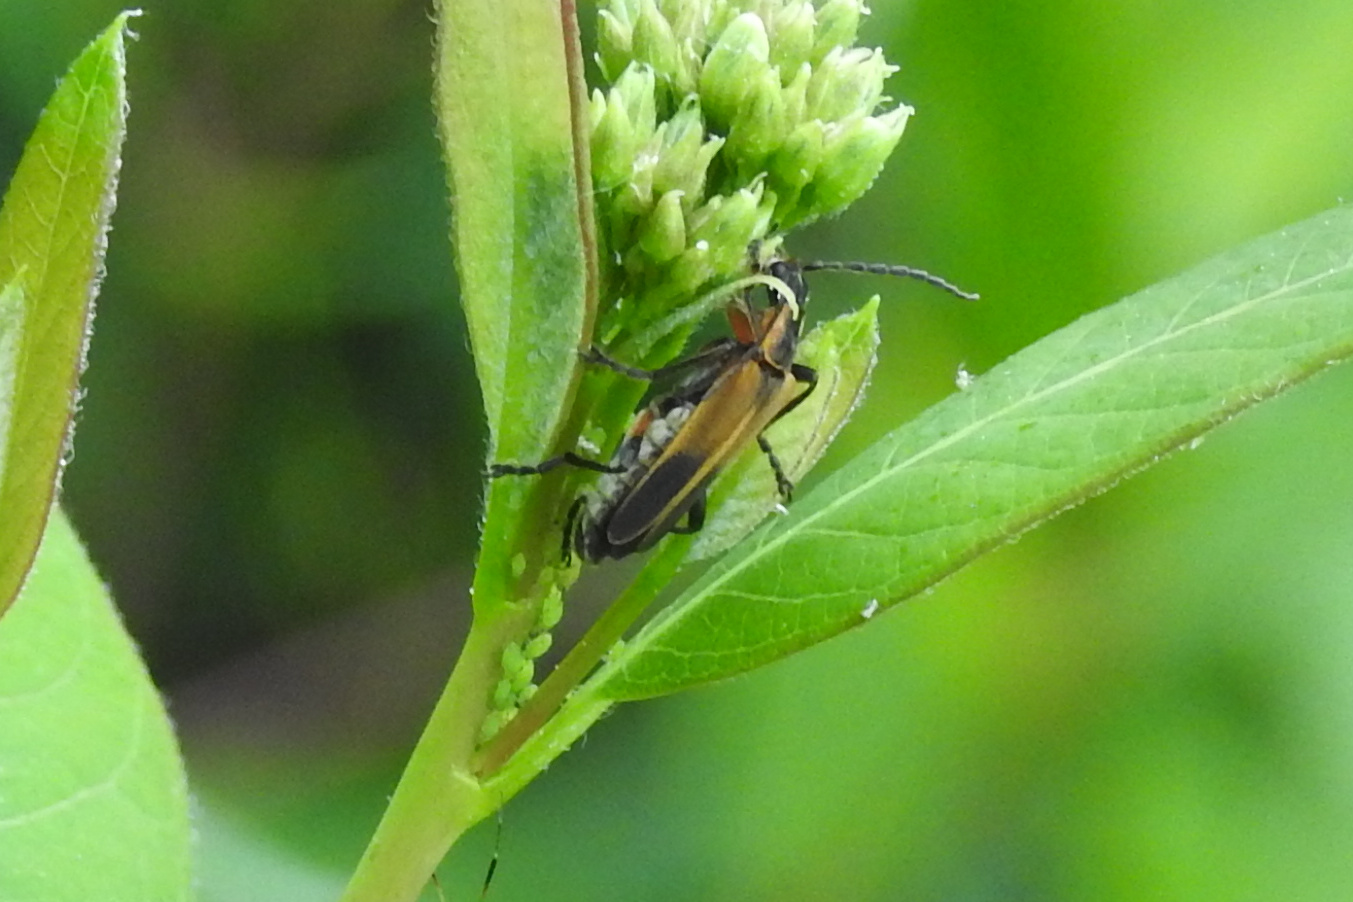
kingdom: Animalia
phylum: Arthropoda
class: Insecta
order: Coleoptera
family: Cantharidae
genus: Chauliognathus
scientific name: Chauliognathus marginatus
